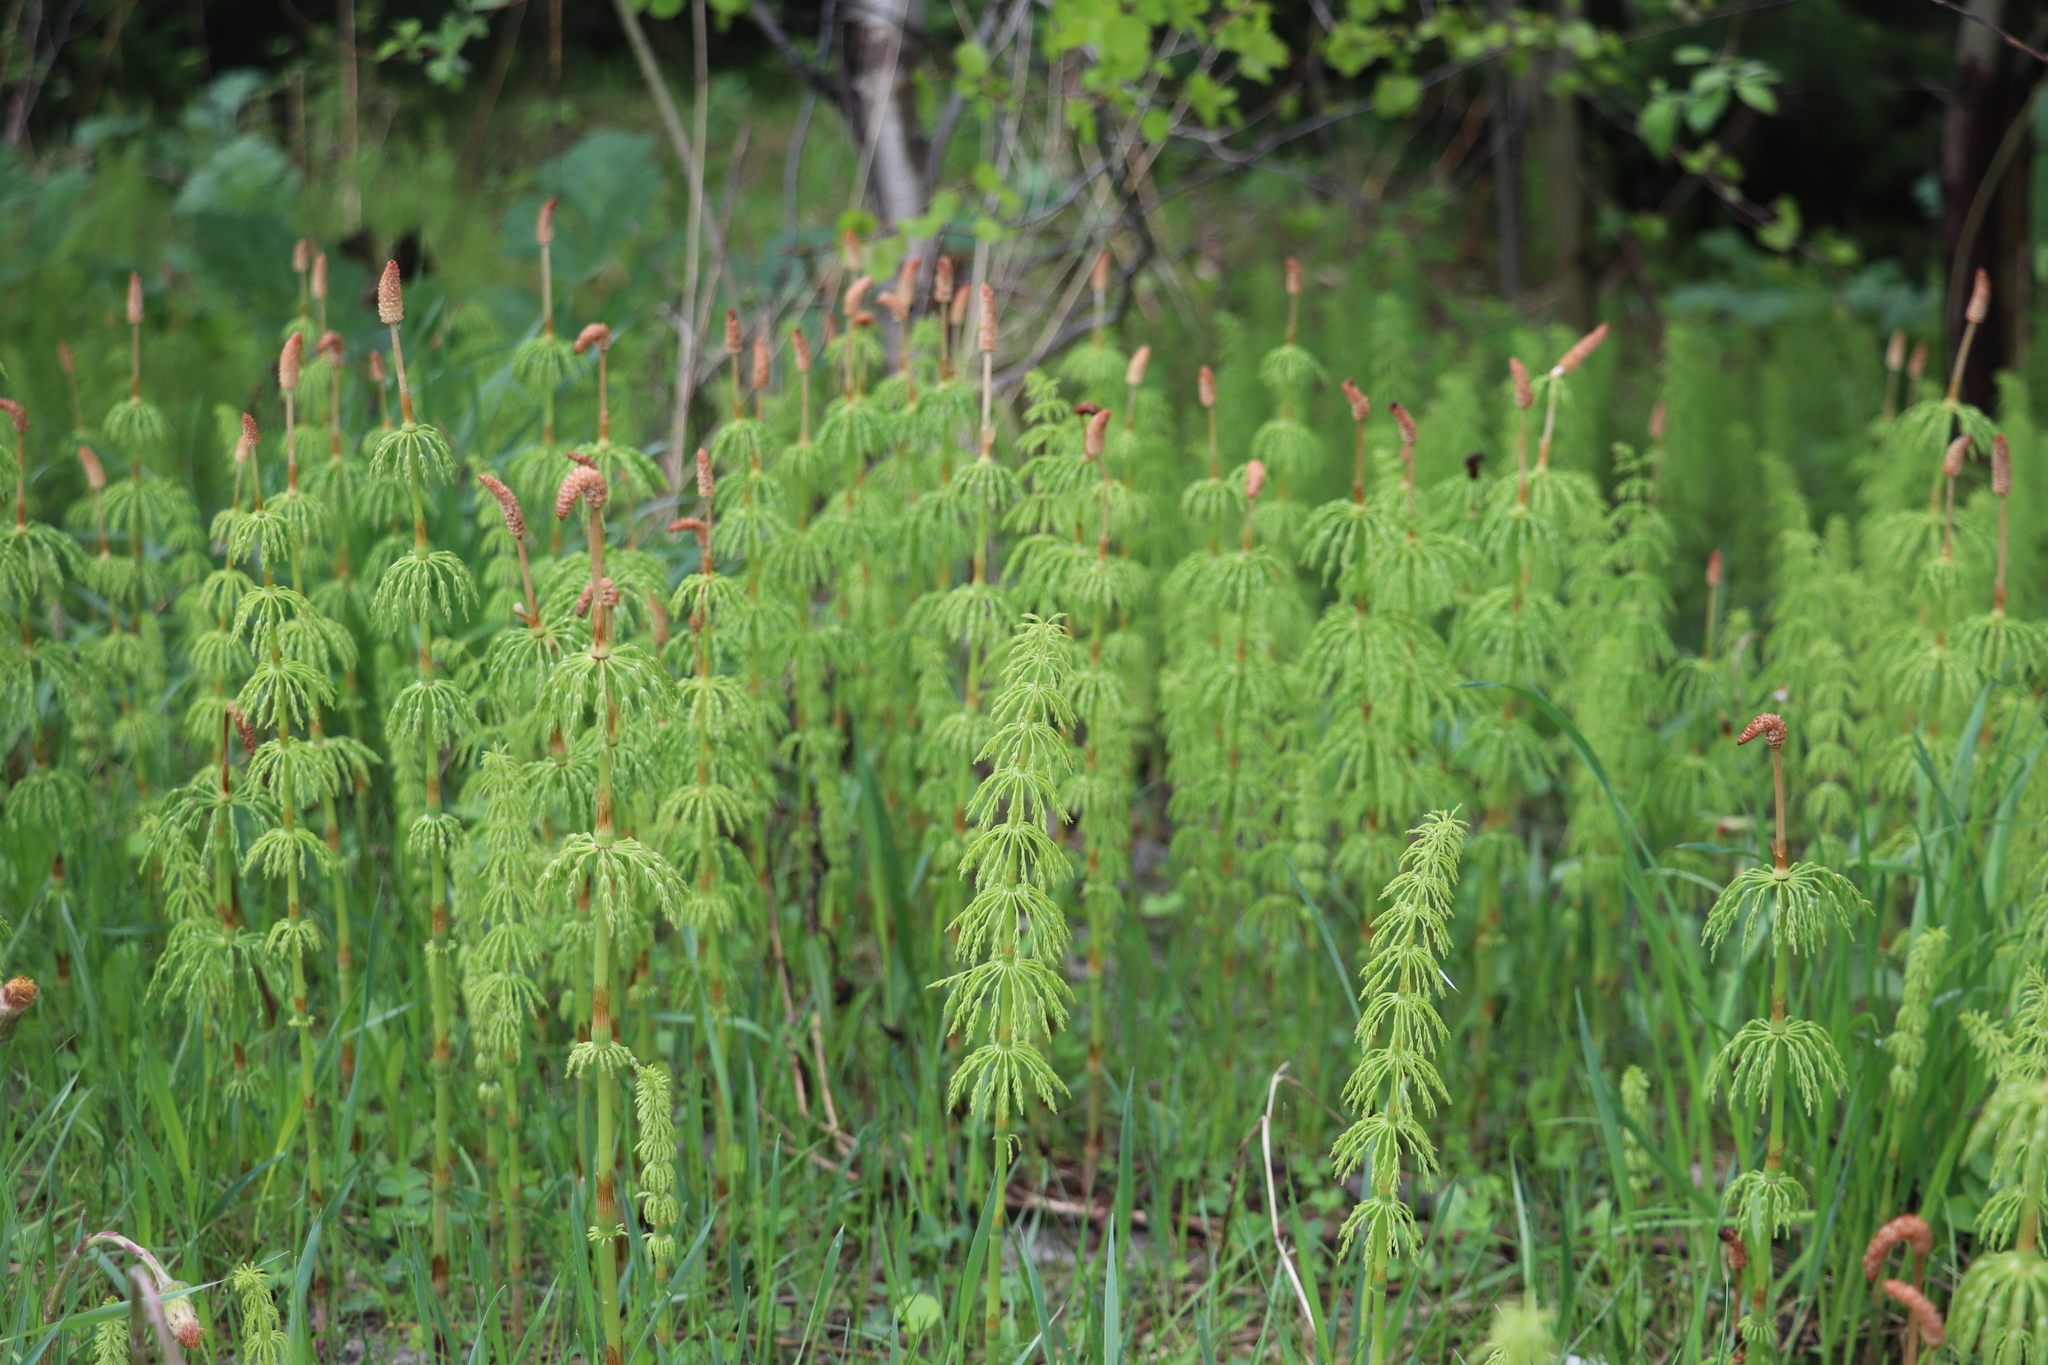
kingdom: Plantae
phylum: Tracheophyta
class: Polypodiopsida
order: Equisetales
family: Equisetaceae
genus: Equisetum
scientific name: Equisetum sylvaticum
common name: Wood horsetail
